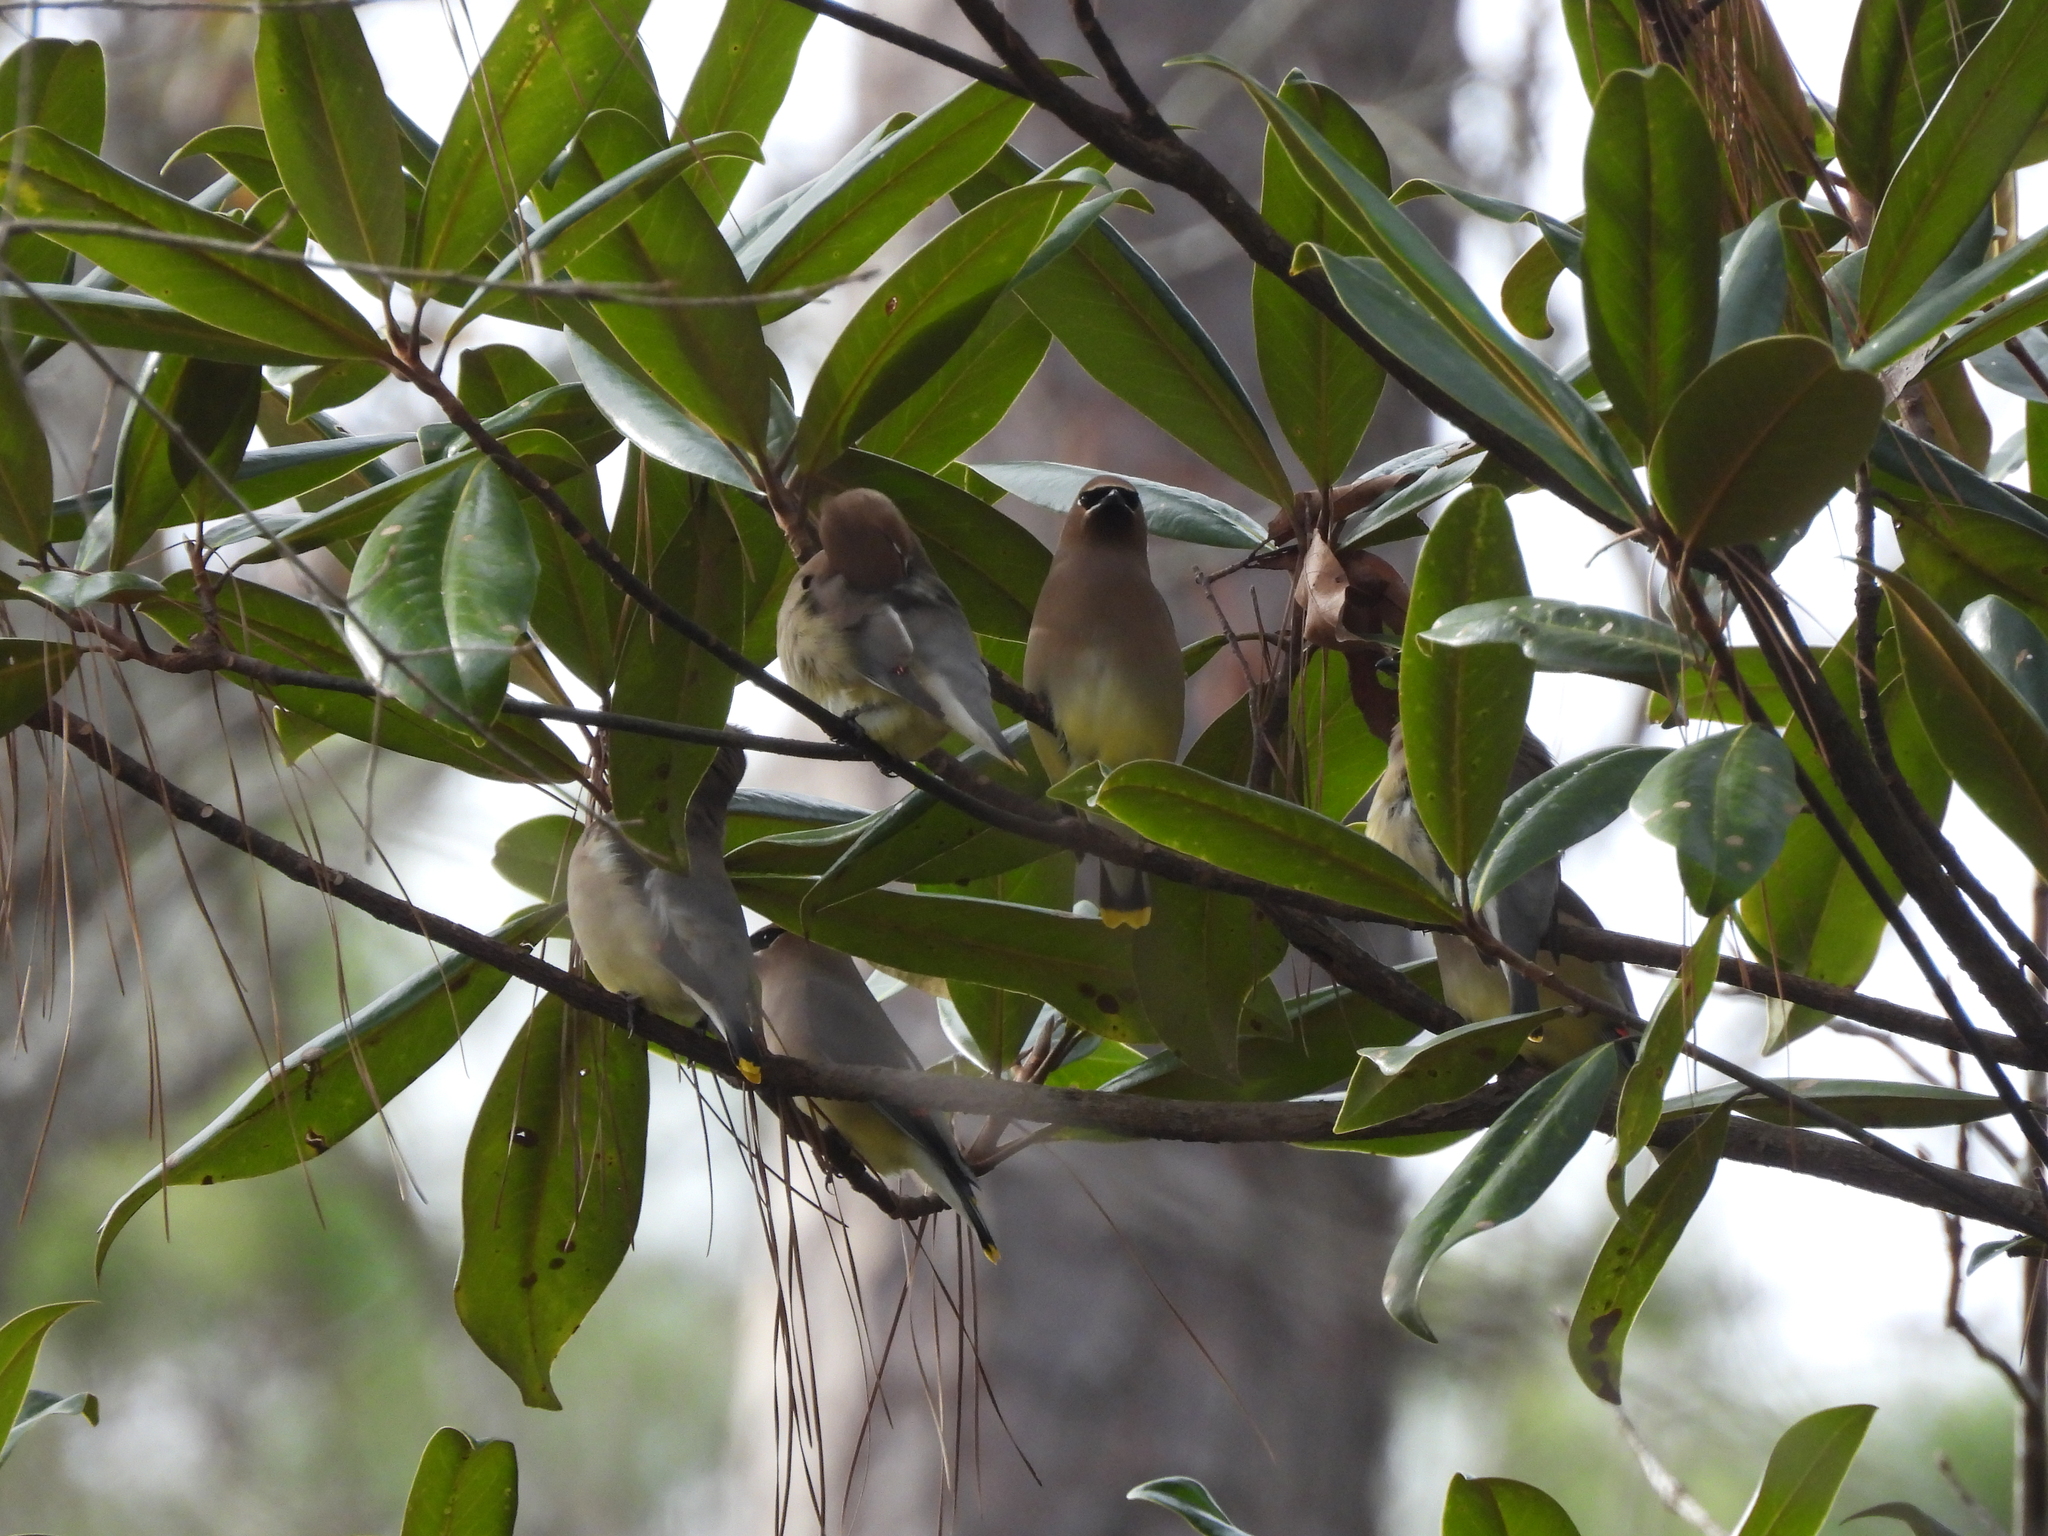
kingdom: Animalia
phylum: Chordata
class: Aves
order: Passeriformes
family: Bombycillidae
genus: Bombycilla
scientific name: Bombycilla cedrorum
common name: Cedar waxwing
